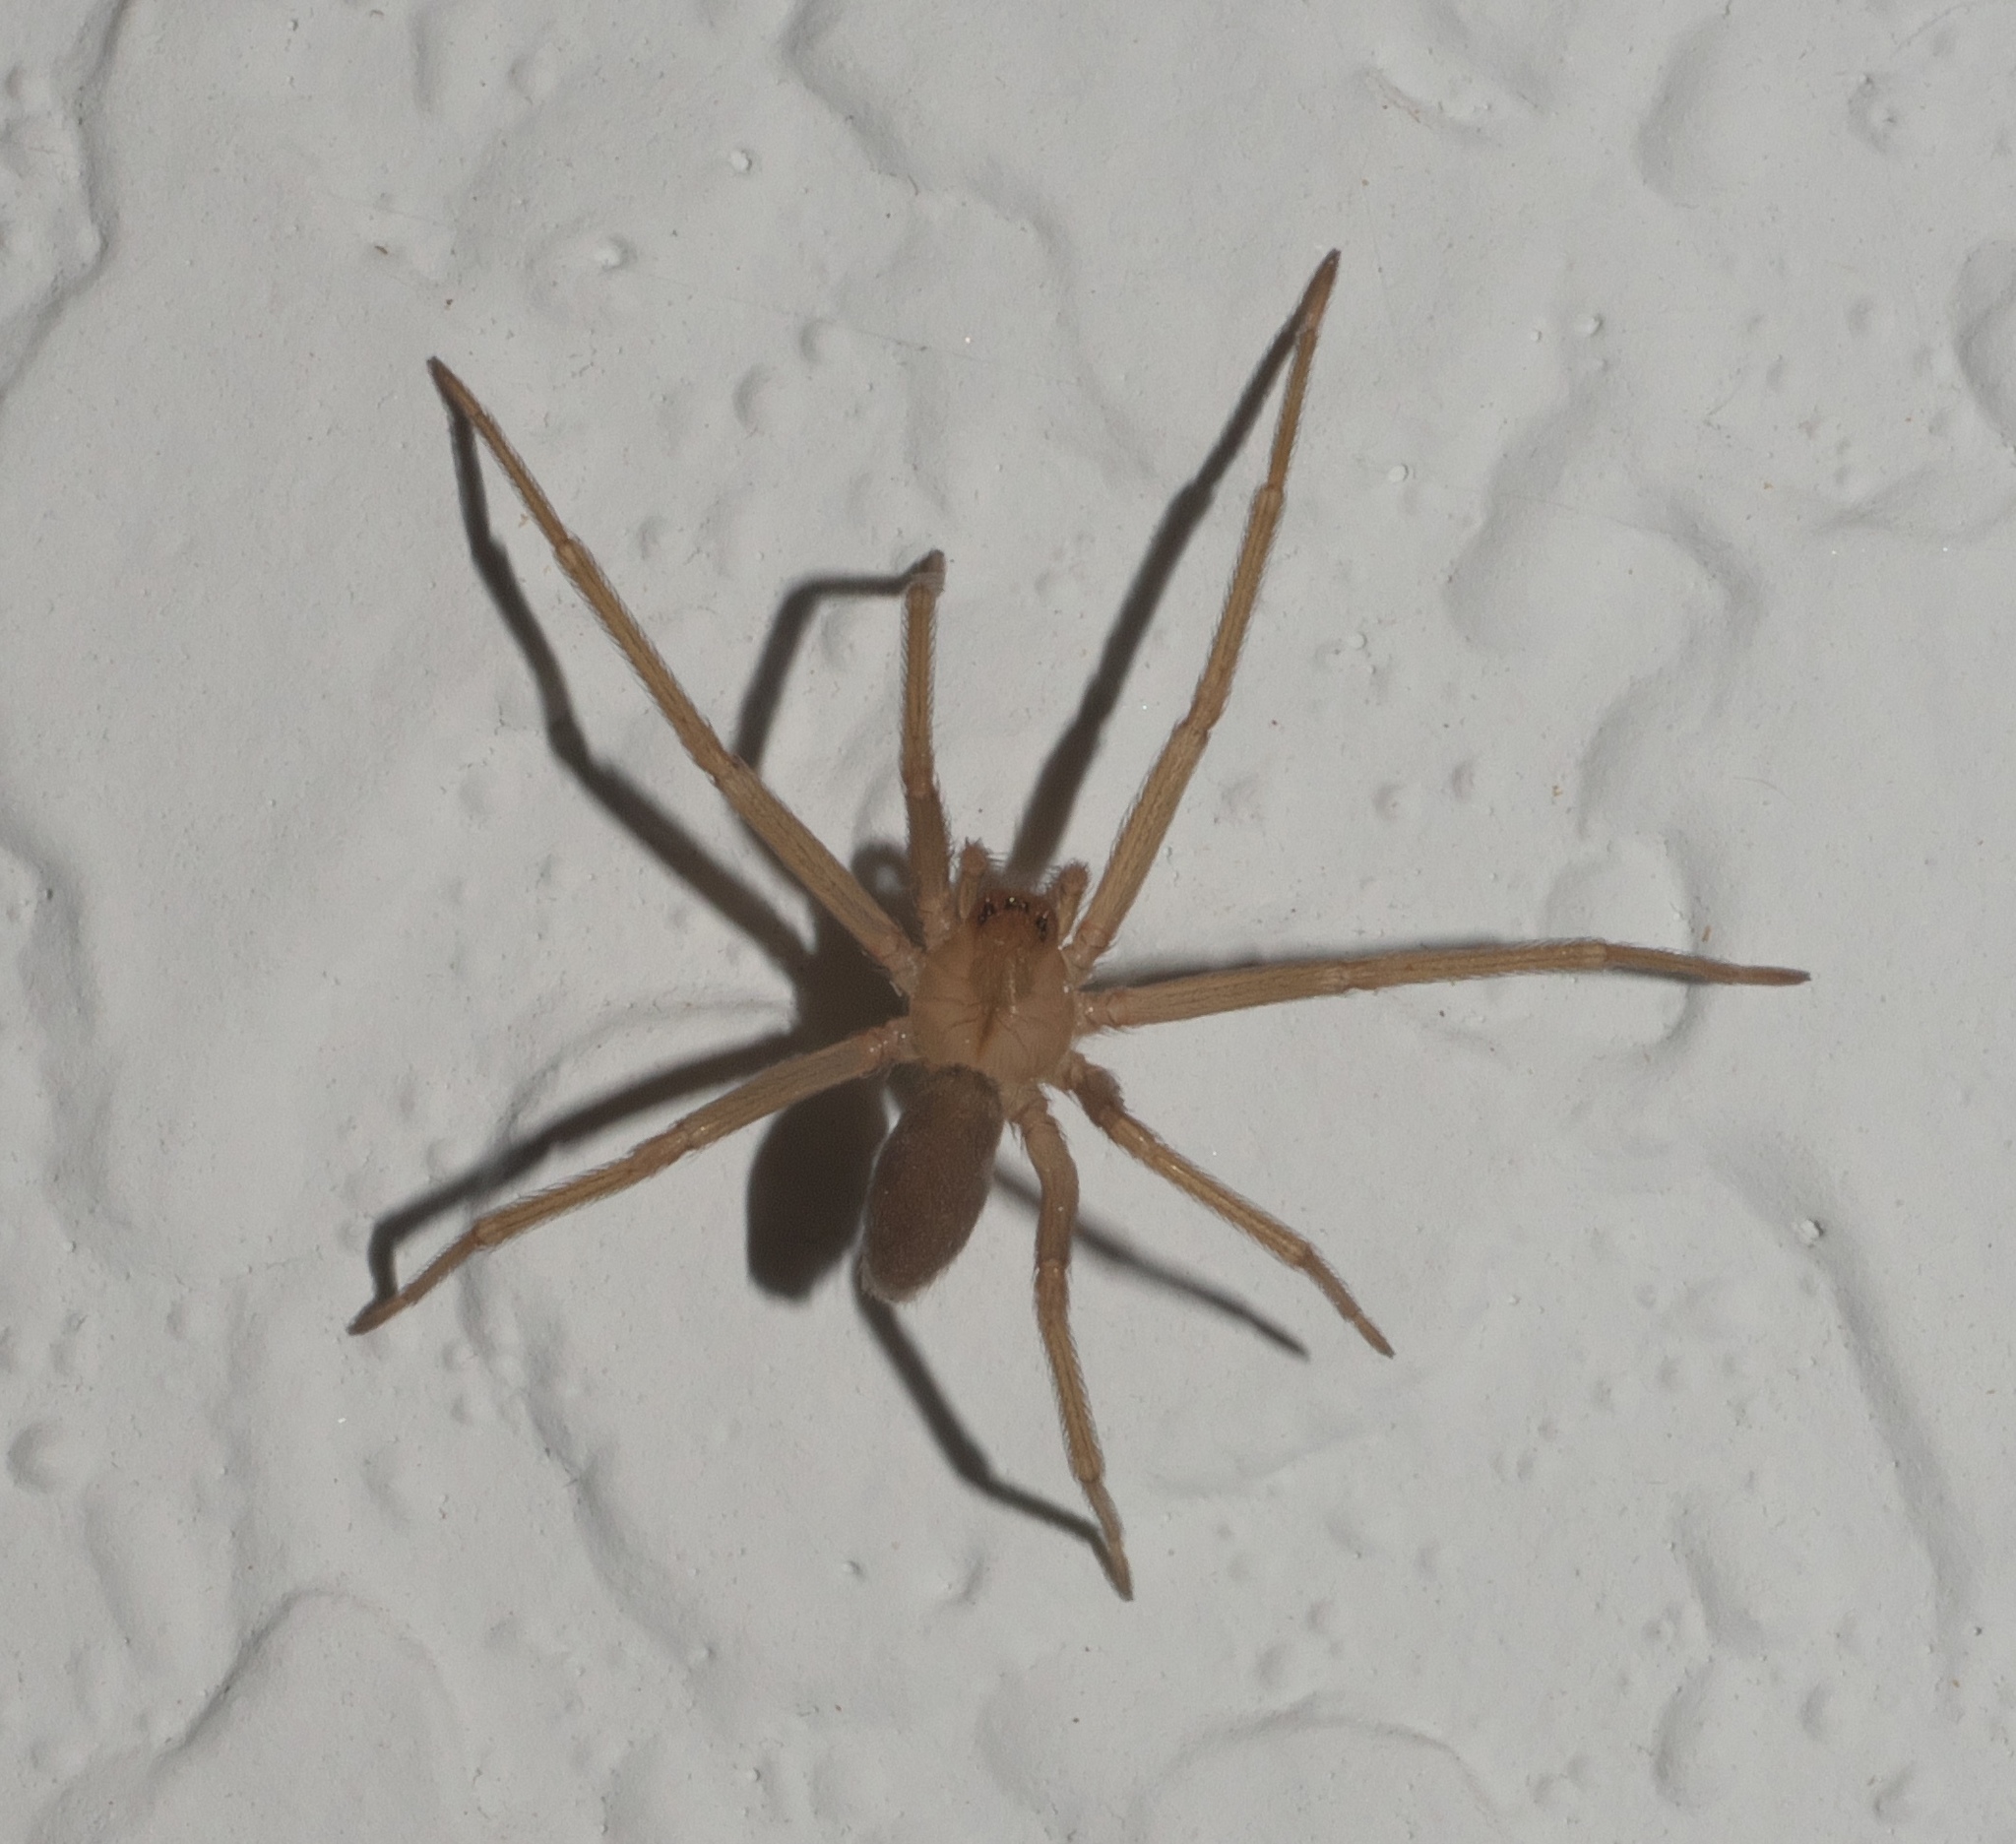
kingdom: Animalia
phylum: Arthropoda
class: Arachnida
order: Araneae
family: Sicariidae
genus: Loxosceles
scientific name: Loxosceles reclusa
